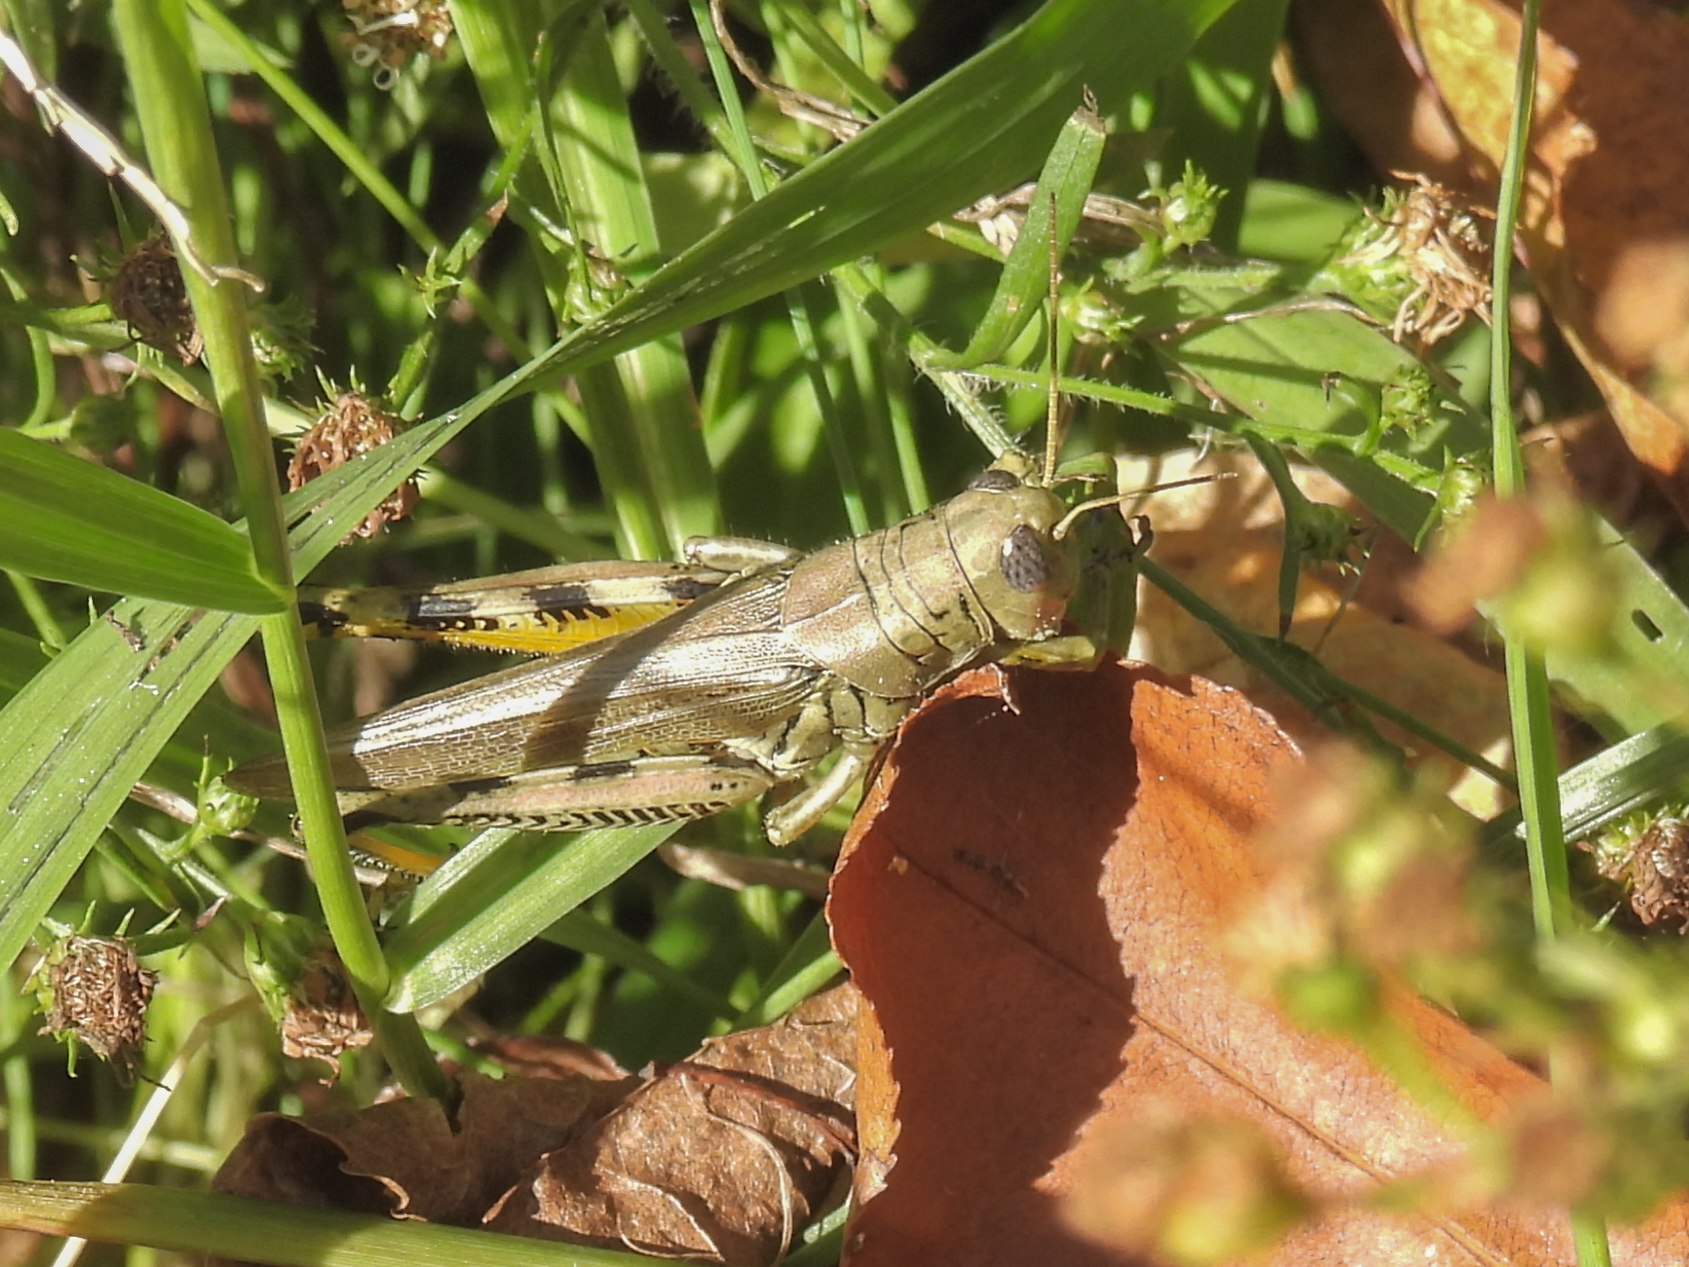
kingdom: Animalia
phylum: Arthropoda
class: Insecta
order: Orthoptera
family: Acrididae
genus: Melanoplus
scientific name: Melanoplus differentialis
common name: Differential grasshopper
